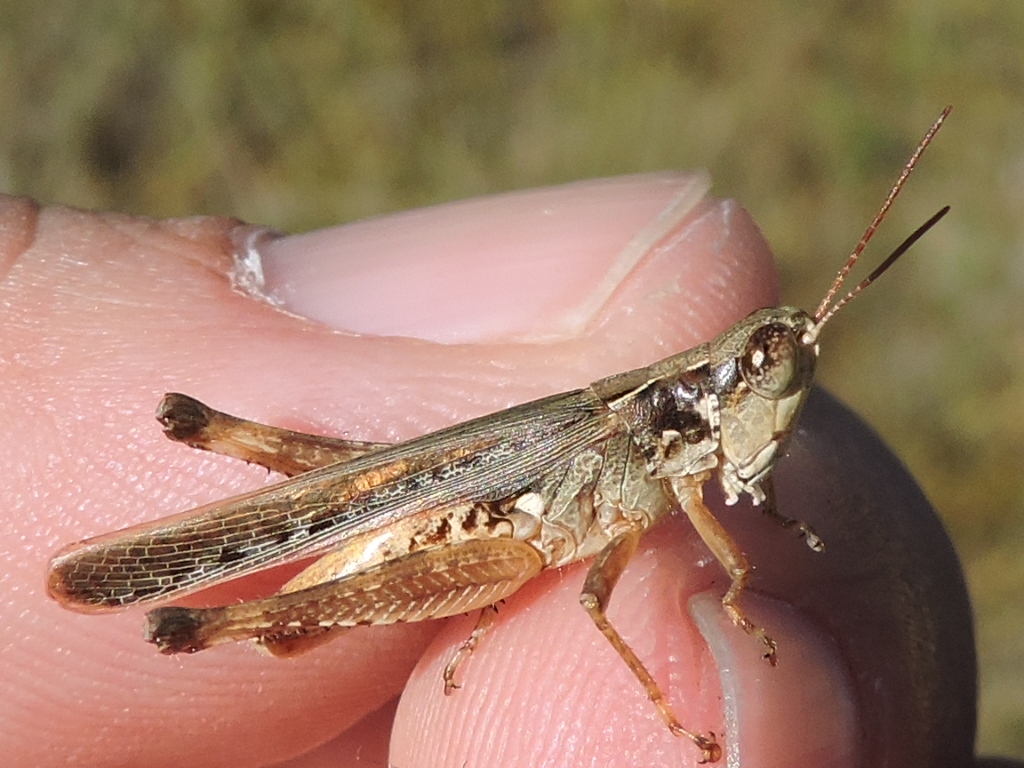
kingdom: Animalia
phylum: Arthropoda
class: Insecta
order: Orthoptera
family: Acrididae
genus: Orphulella
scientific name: Orphulella pelidna
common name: Spotted-wing grasshopper
